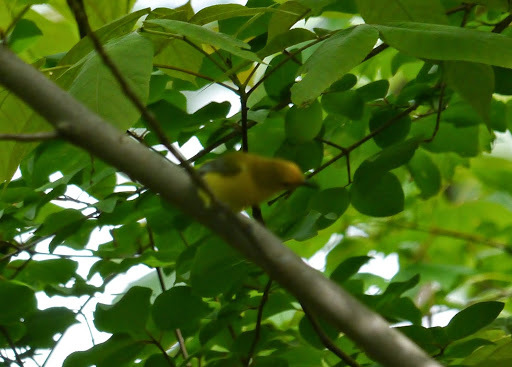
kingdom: Animalia
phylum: Chordata
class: Aves
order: Passeriformes
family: Parulidae
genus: Protonotaria
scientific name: Protonotaria citrea
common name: Prothonotary warbler
